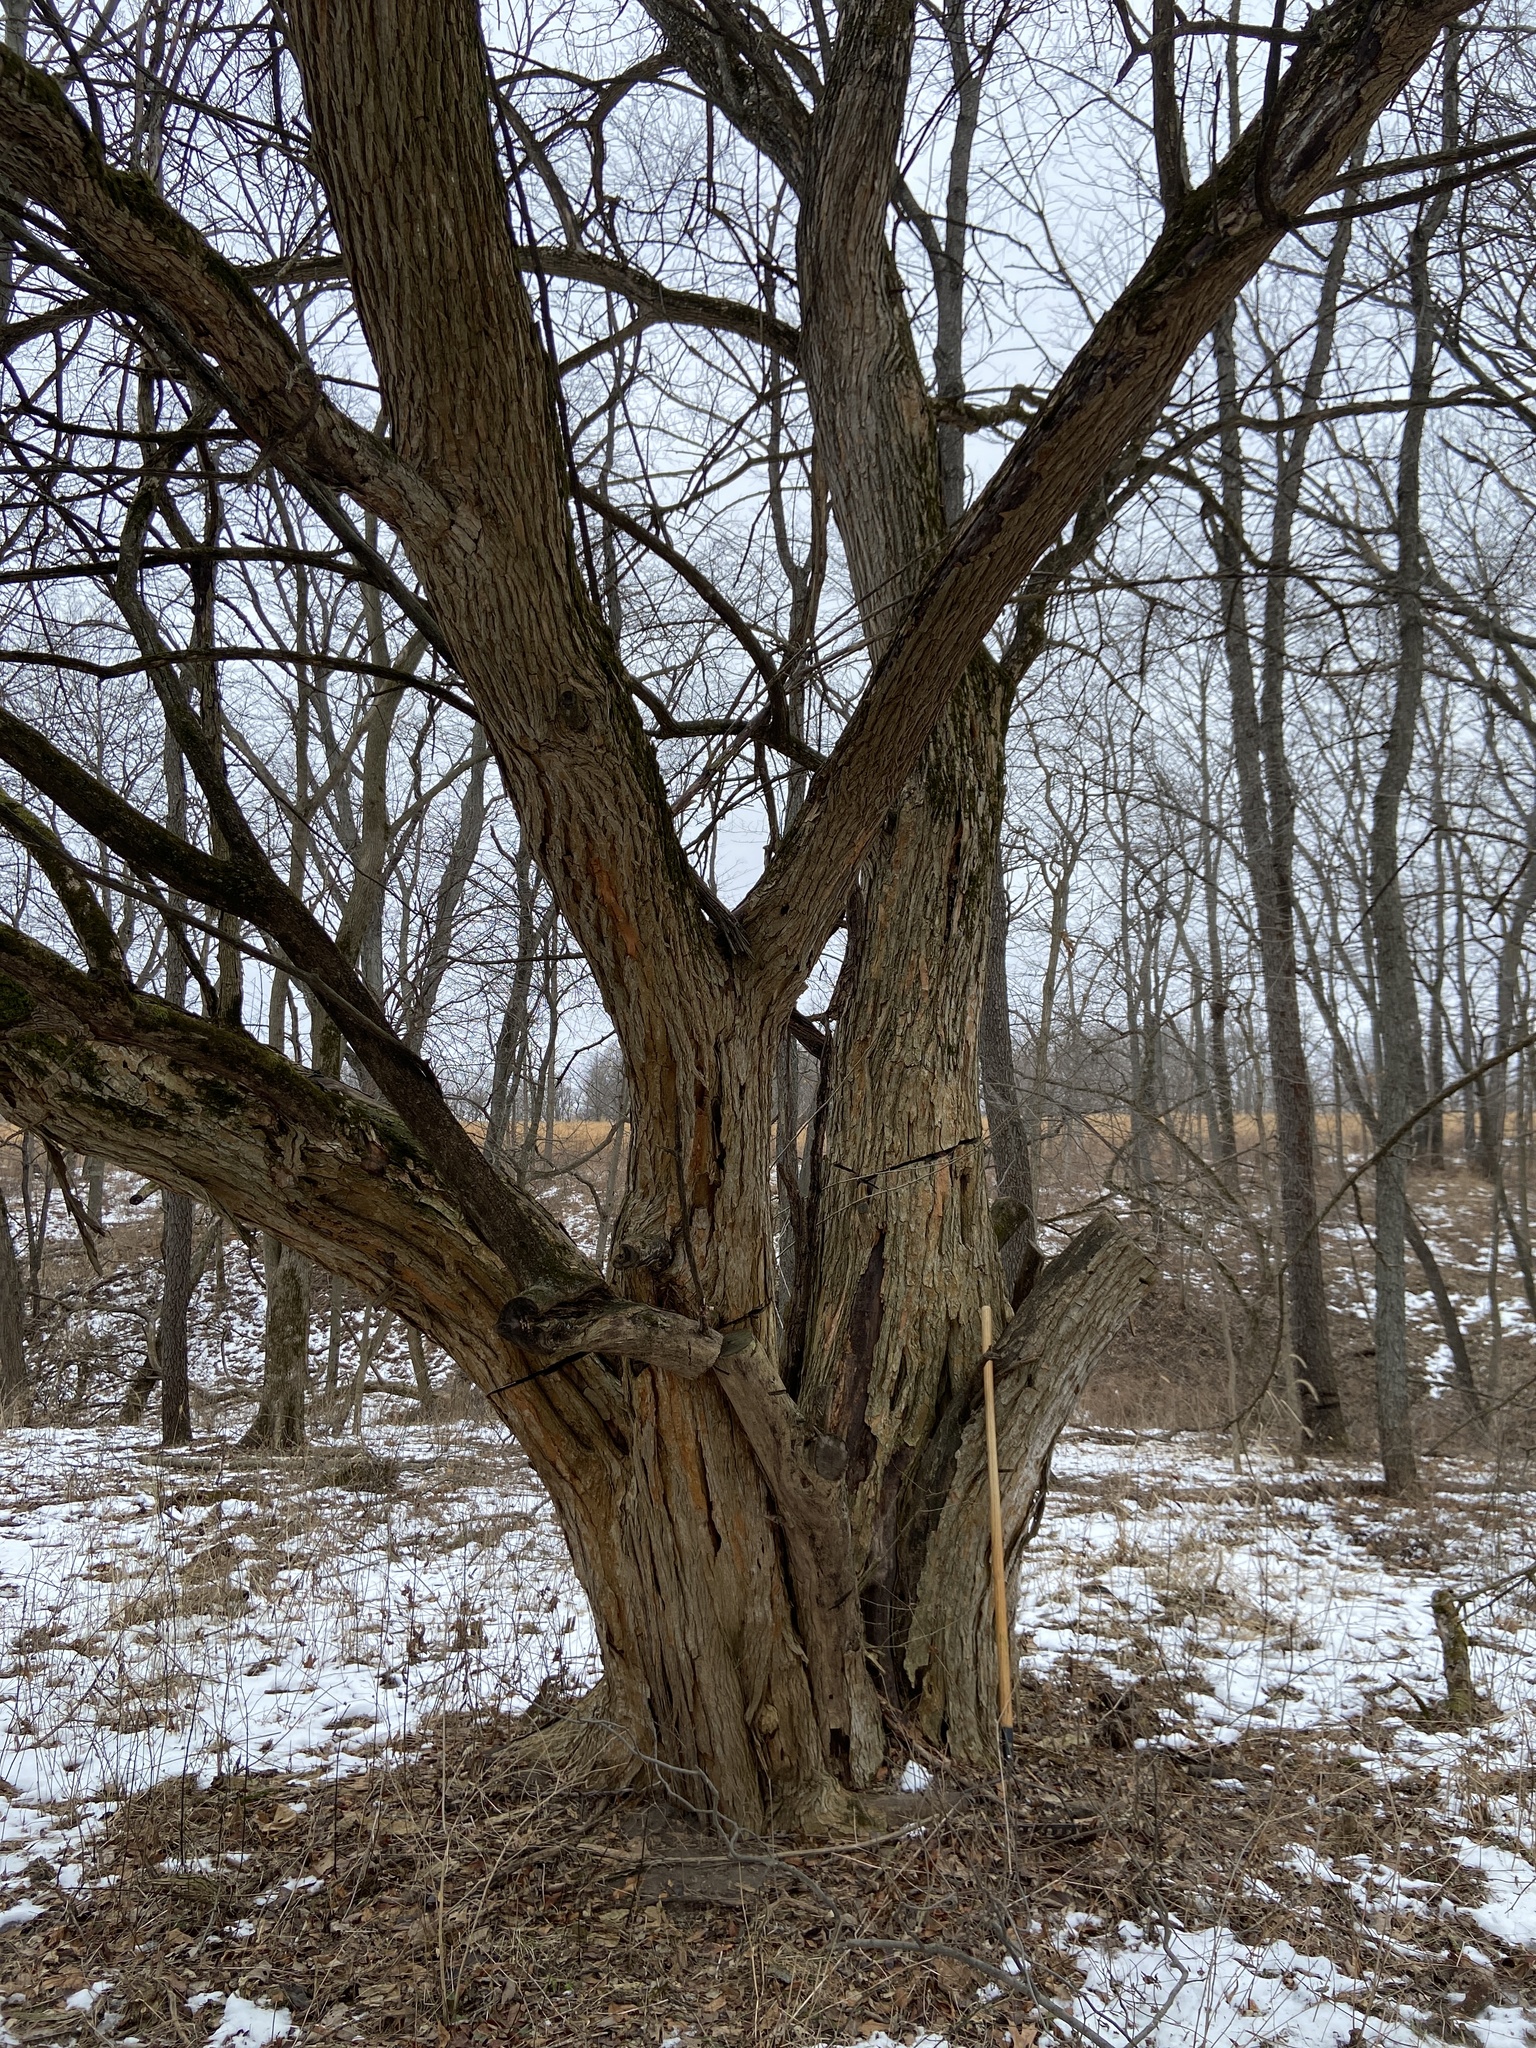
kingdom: Plantae
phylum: Tracheophyta
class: Magnoliopsida
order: Rosales
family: Moraceae
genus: Maclura
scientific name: Maclura pomifera
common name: Osage-orange
